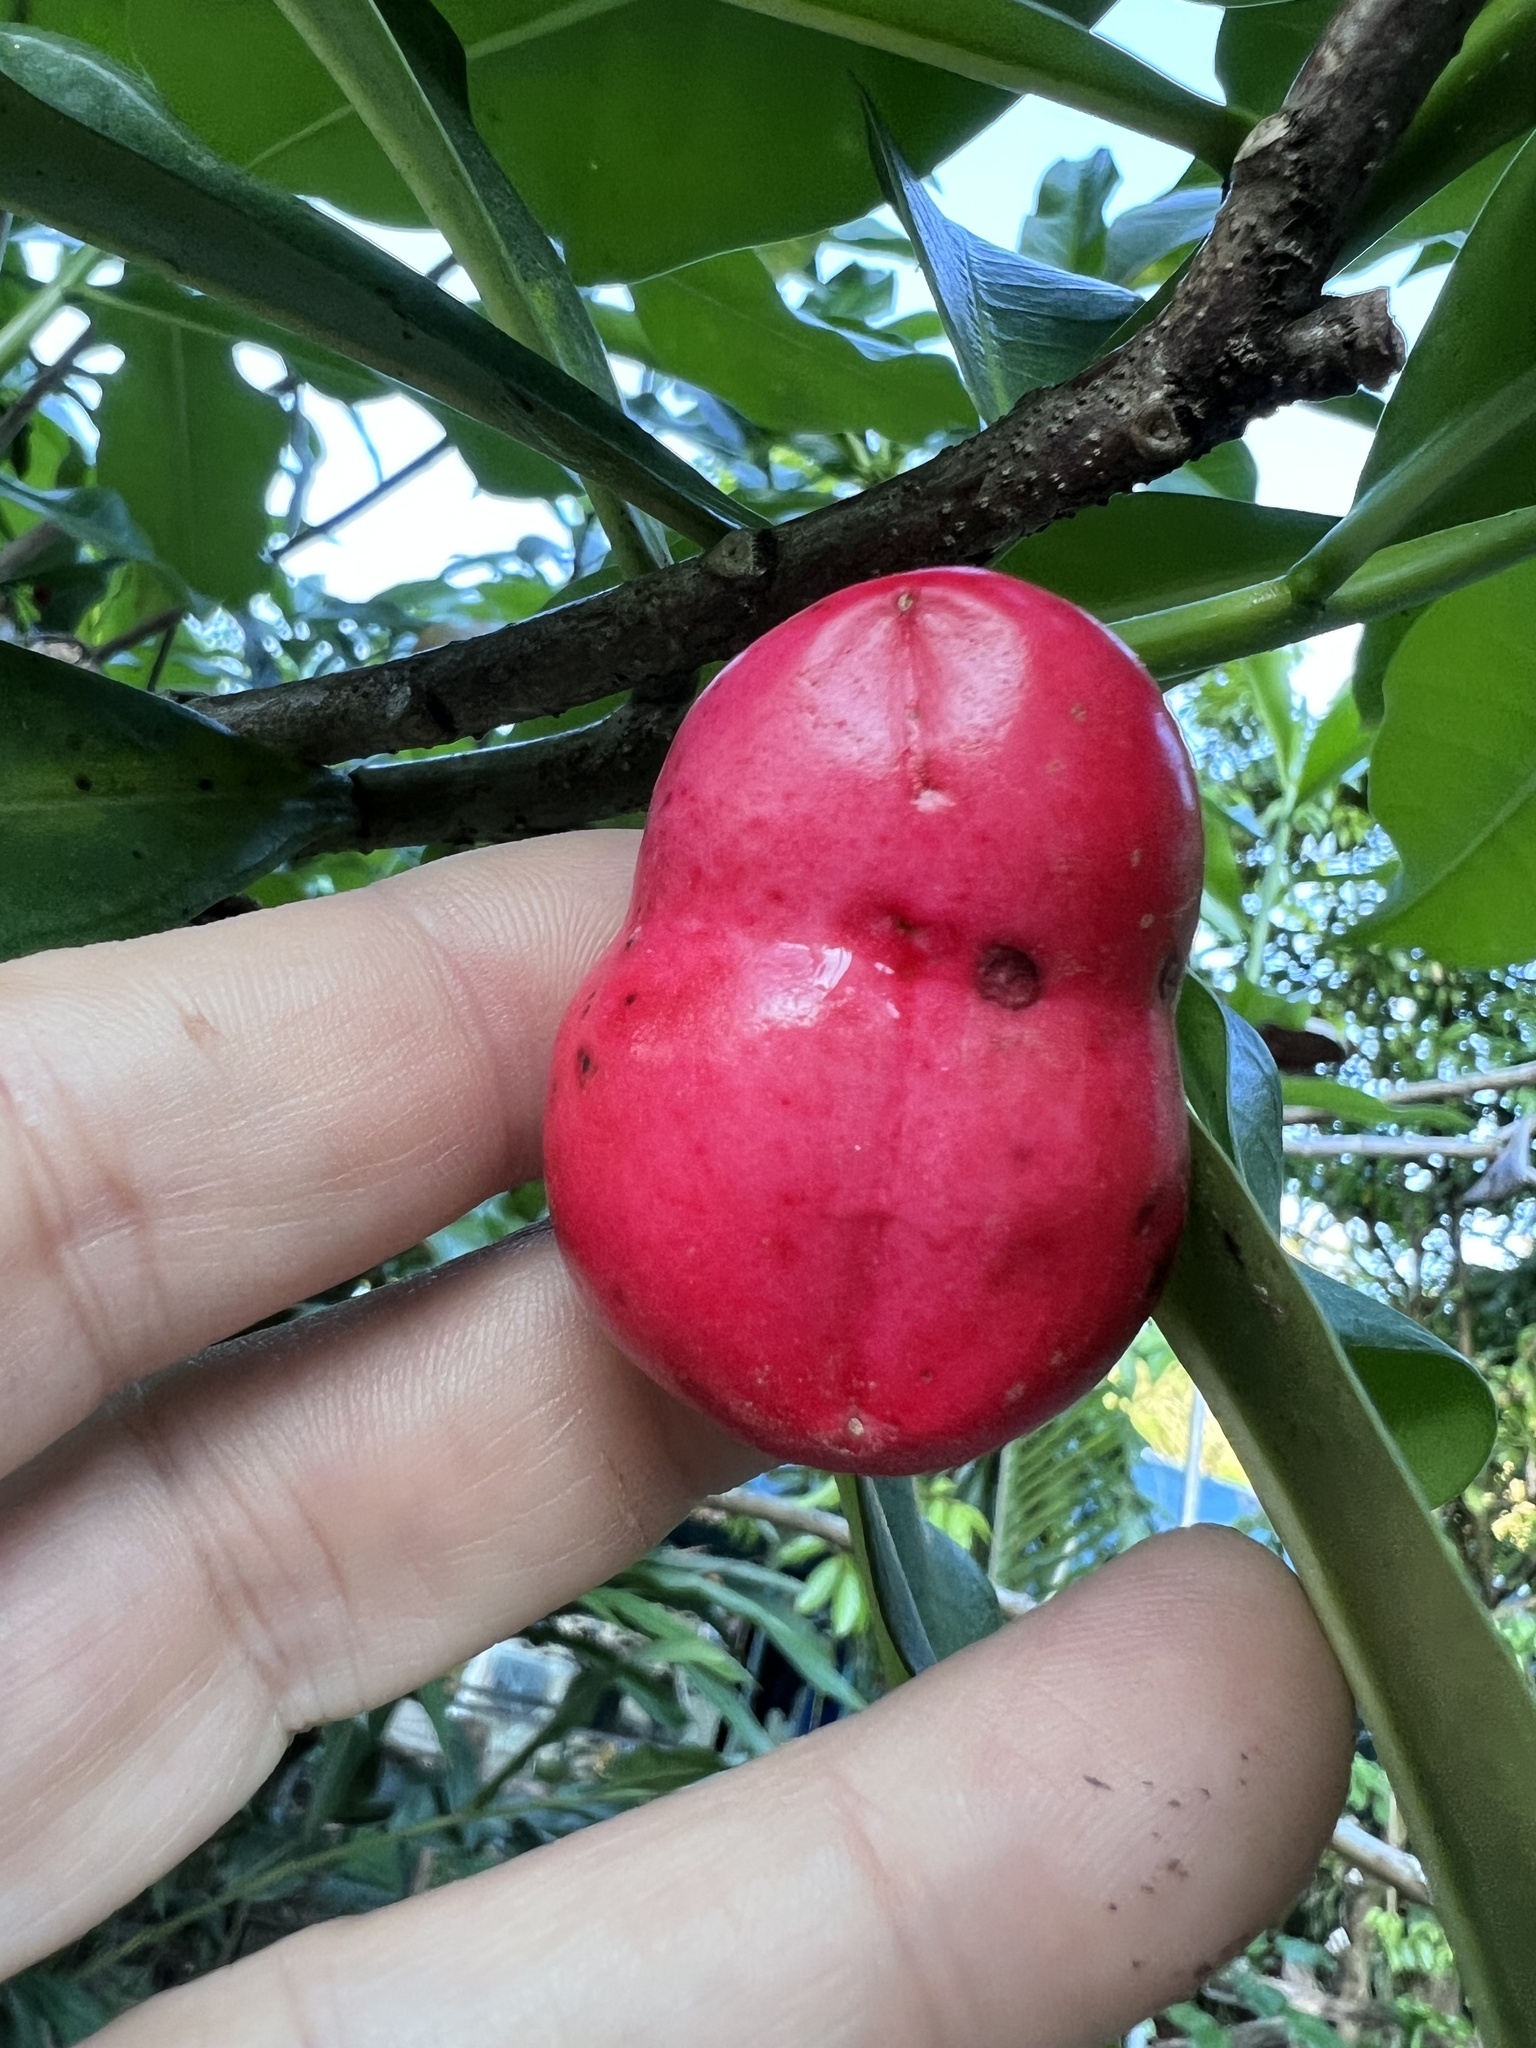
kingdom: Plantae
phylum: Tracheophyta
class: Magnoliopsida
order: Gentianales
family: Apocynaceae
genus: Thevetia
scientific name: Thevetia ahouai
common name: Broadleaf thevetia
